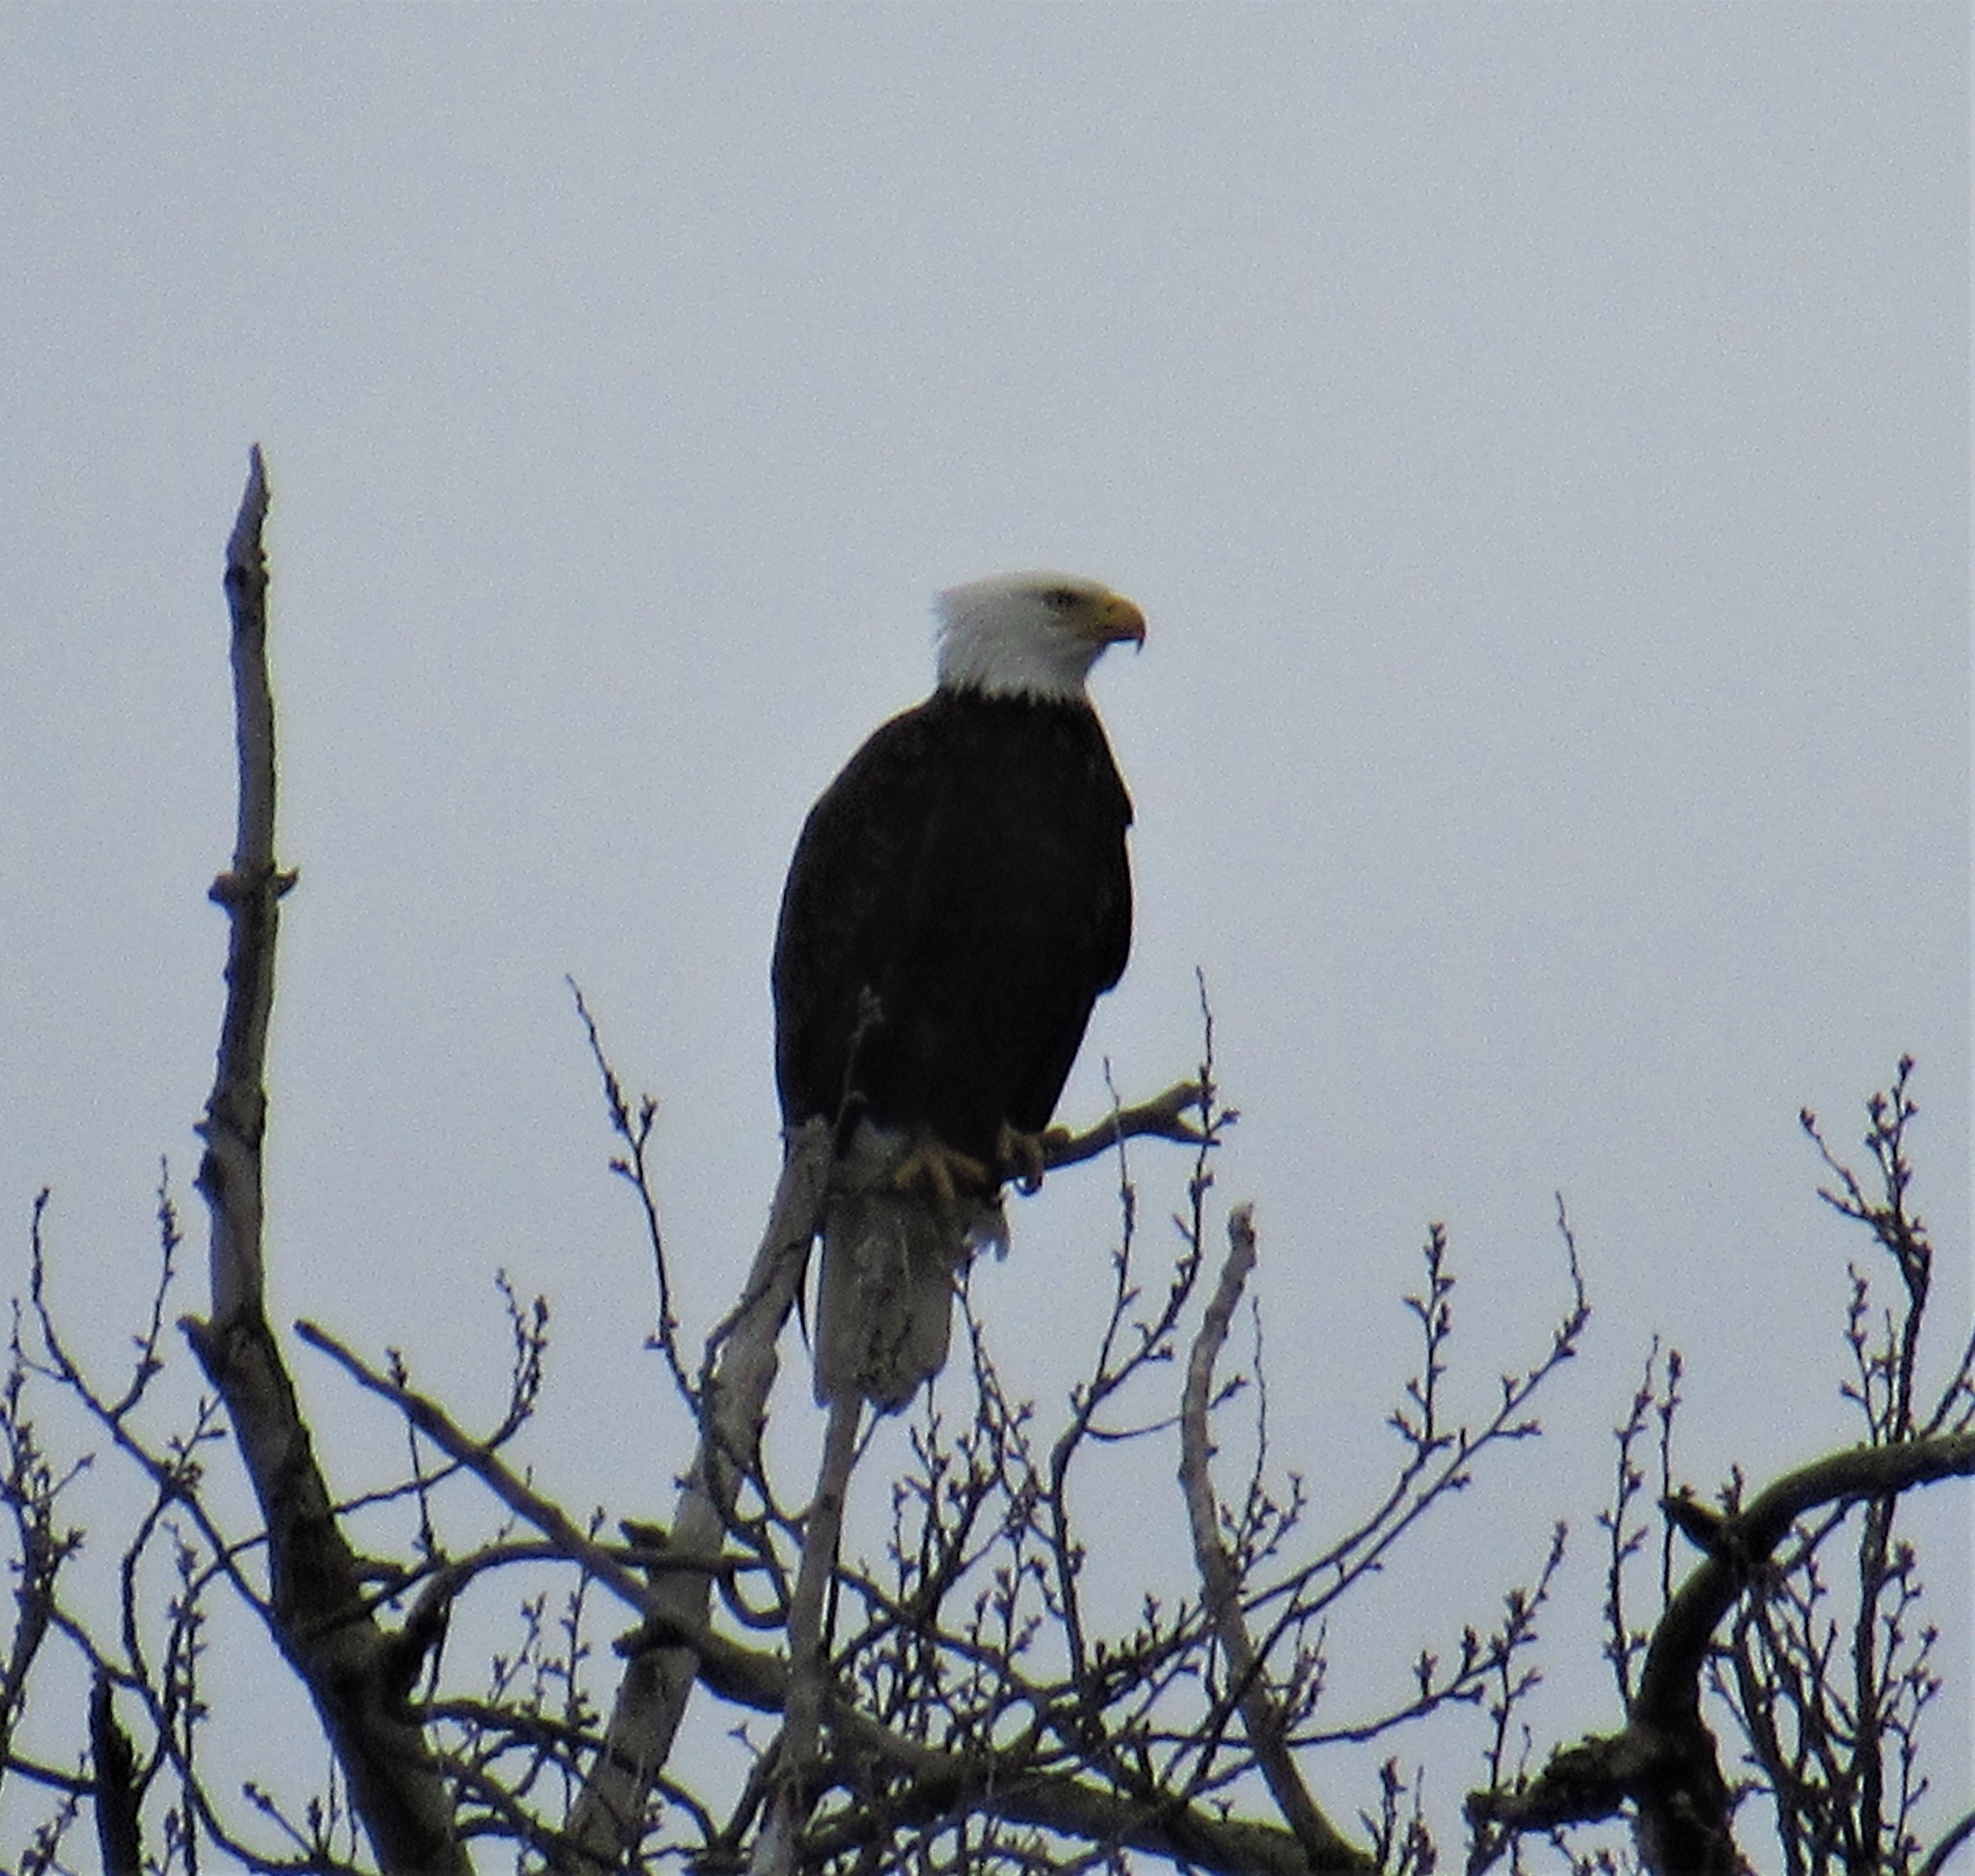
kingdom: Animalia
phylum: Chordata
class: Aves
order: Accipitriformes
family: Accipitridae
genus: Haliaeetus
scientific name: Haliaeetus leucocephalus
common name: Bald eagle
